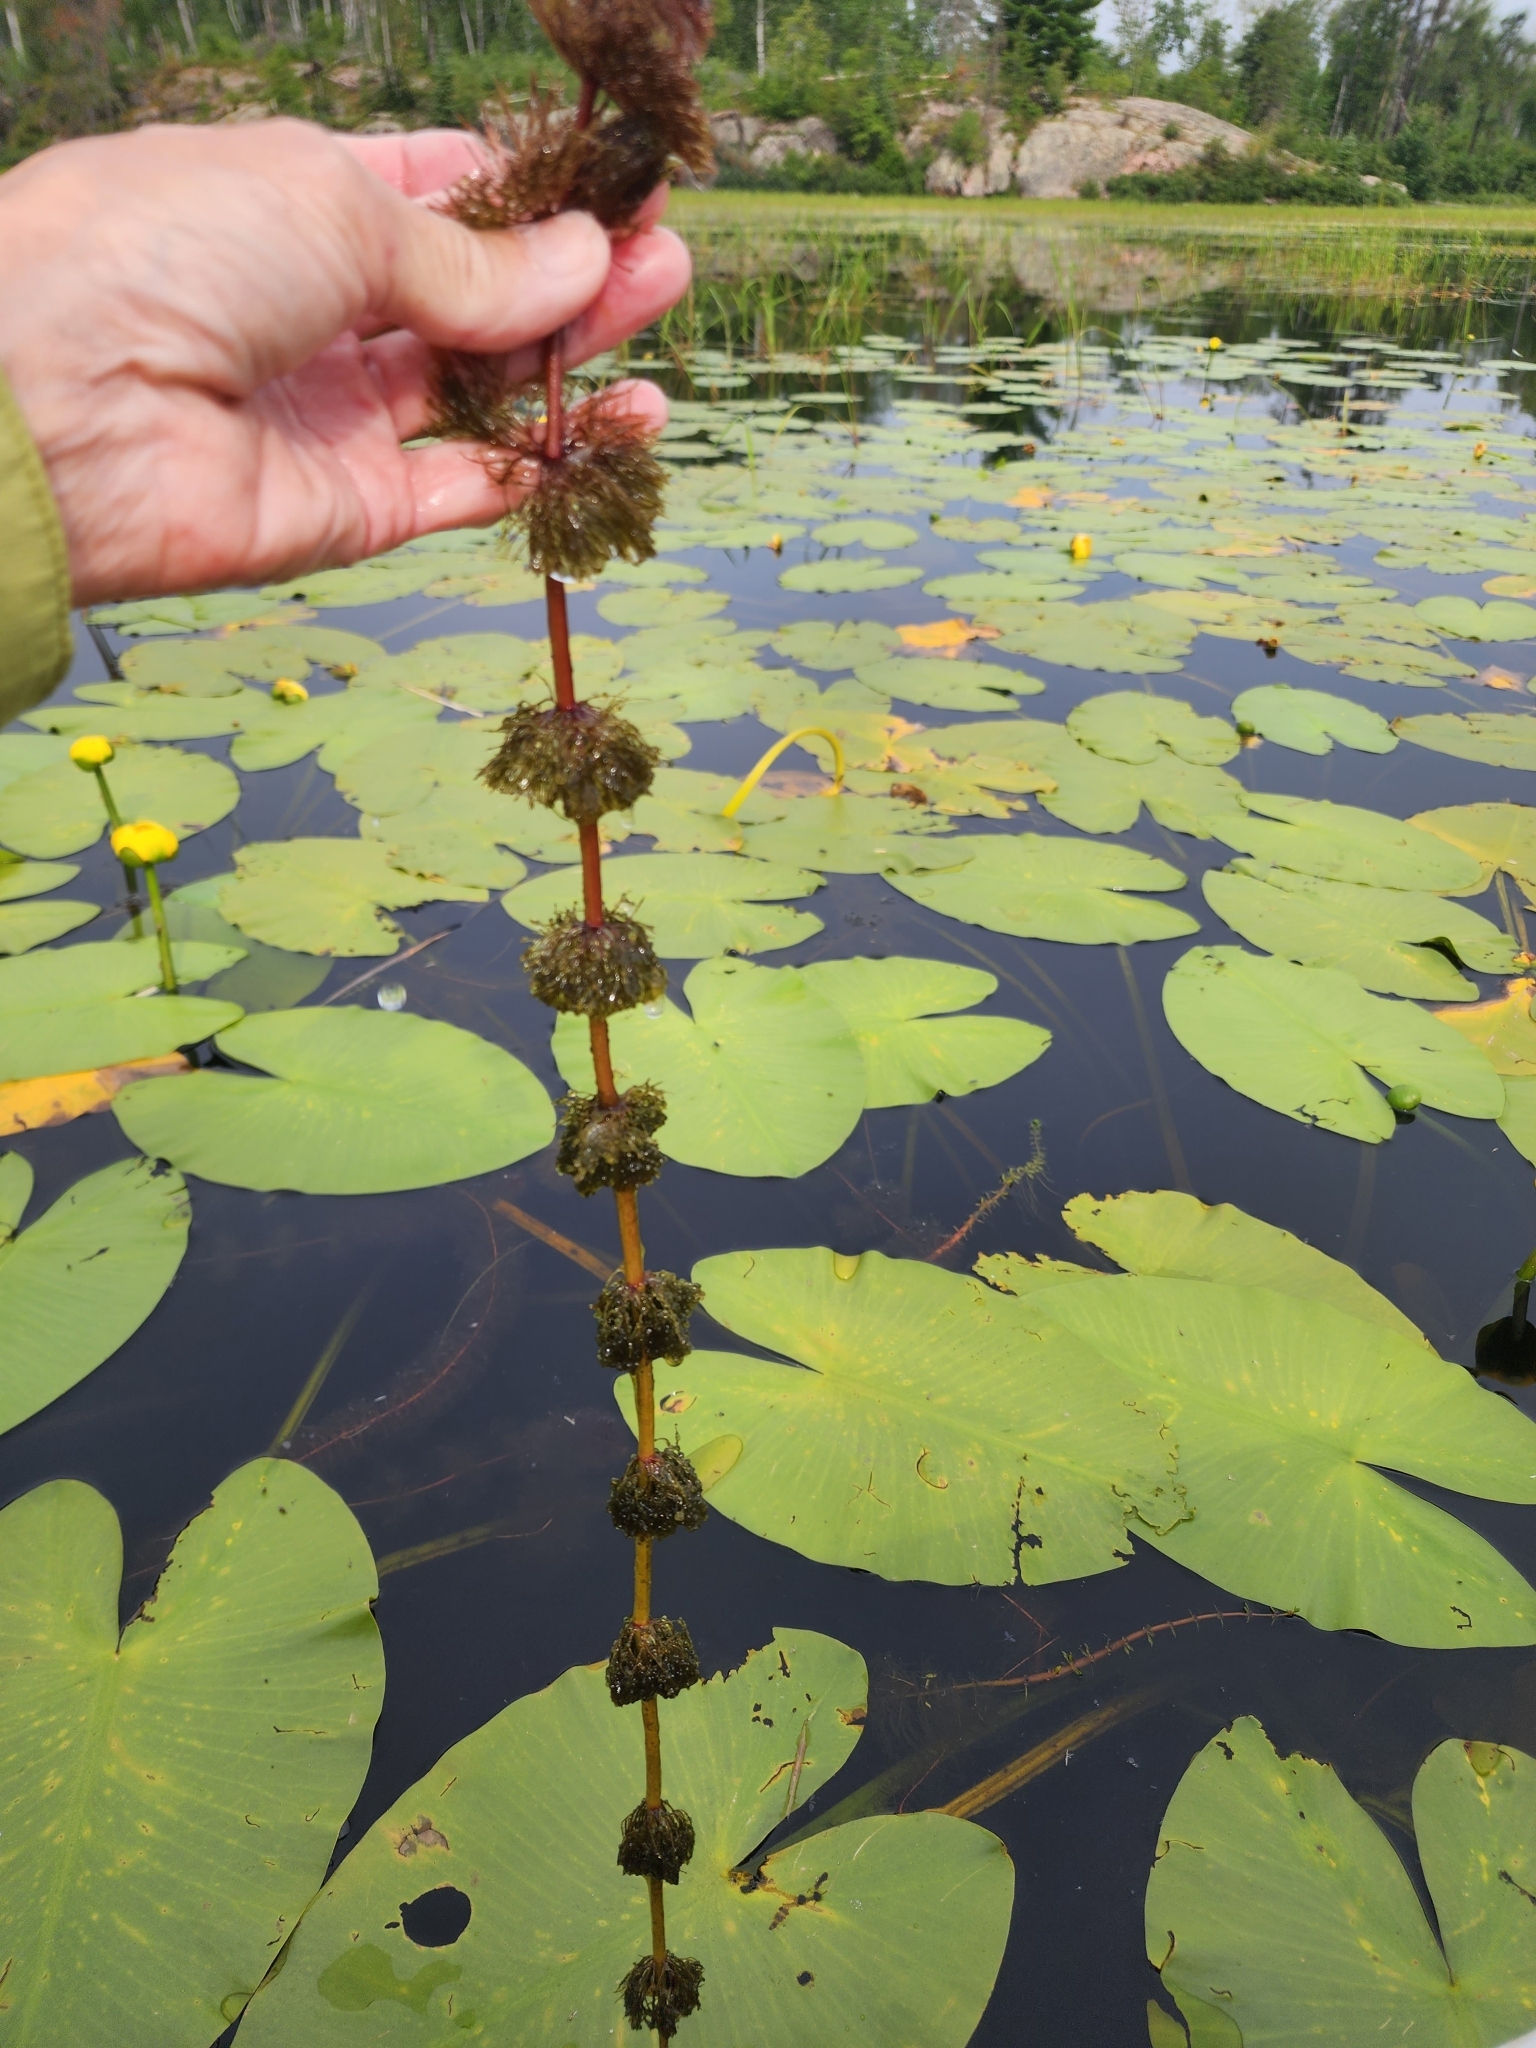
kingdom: Plantae
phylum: Tracheophyta
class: Magnoliopsida
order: Asterales
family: Asteraceae
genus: Bidens
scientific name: Bidens beckii
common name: Beck's beggarticks
